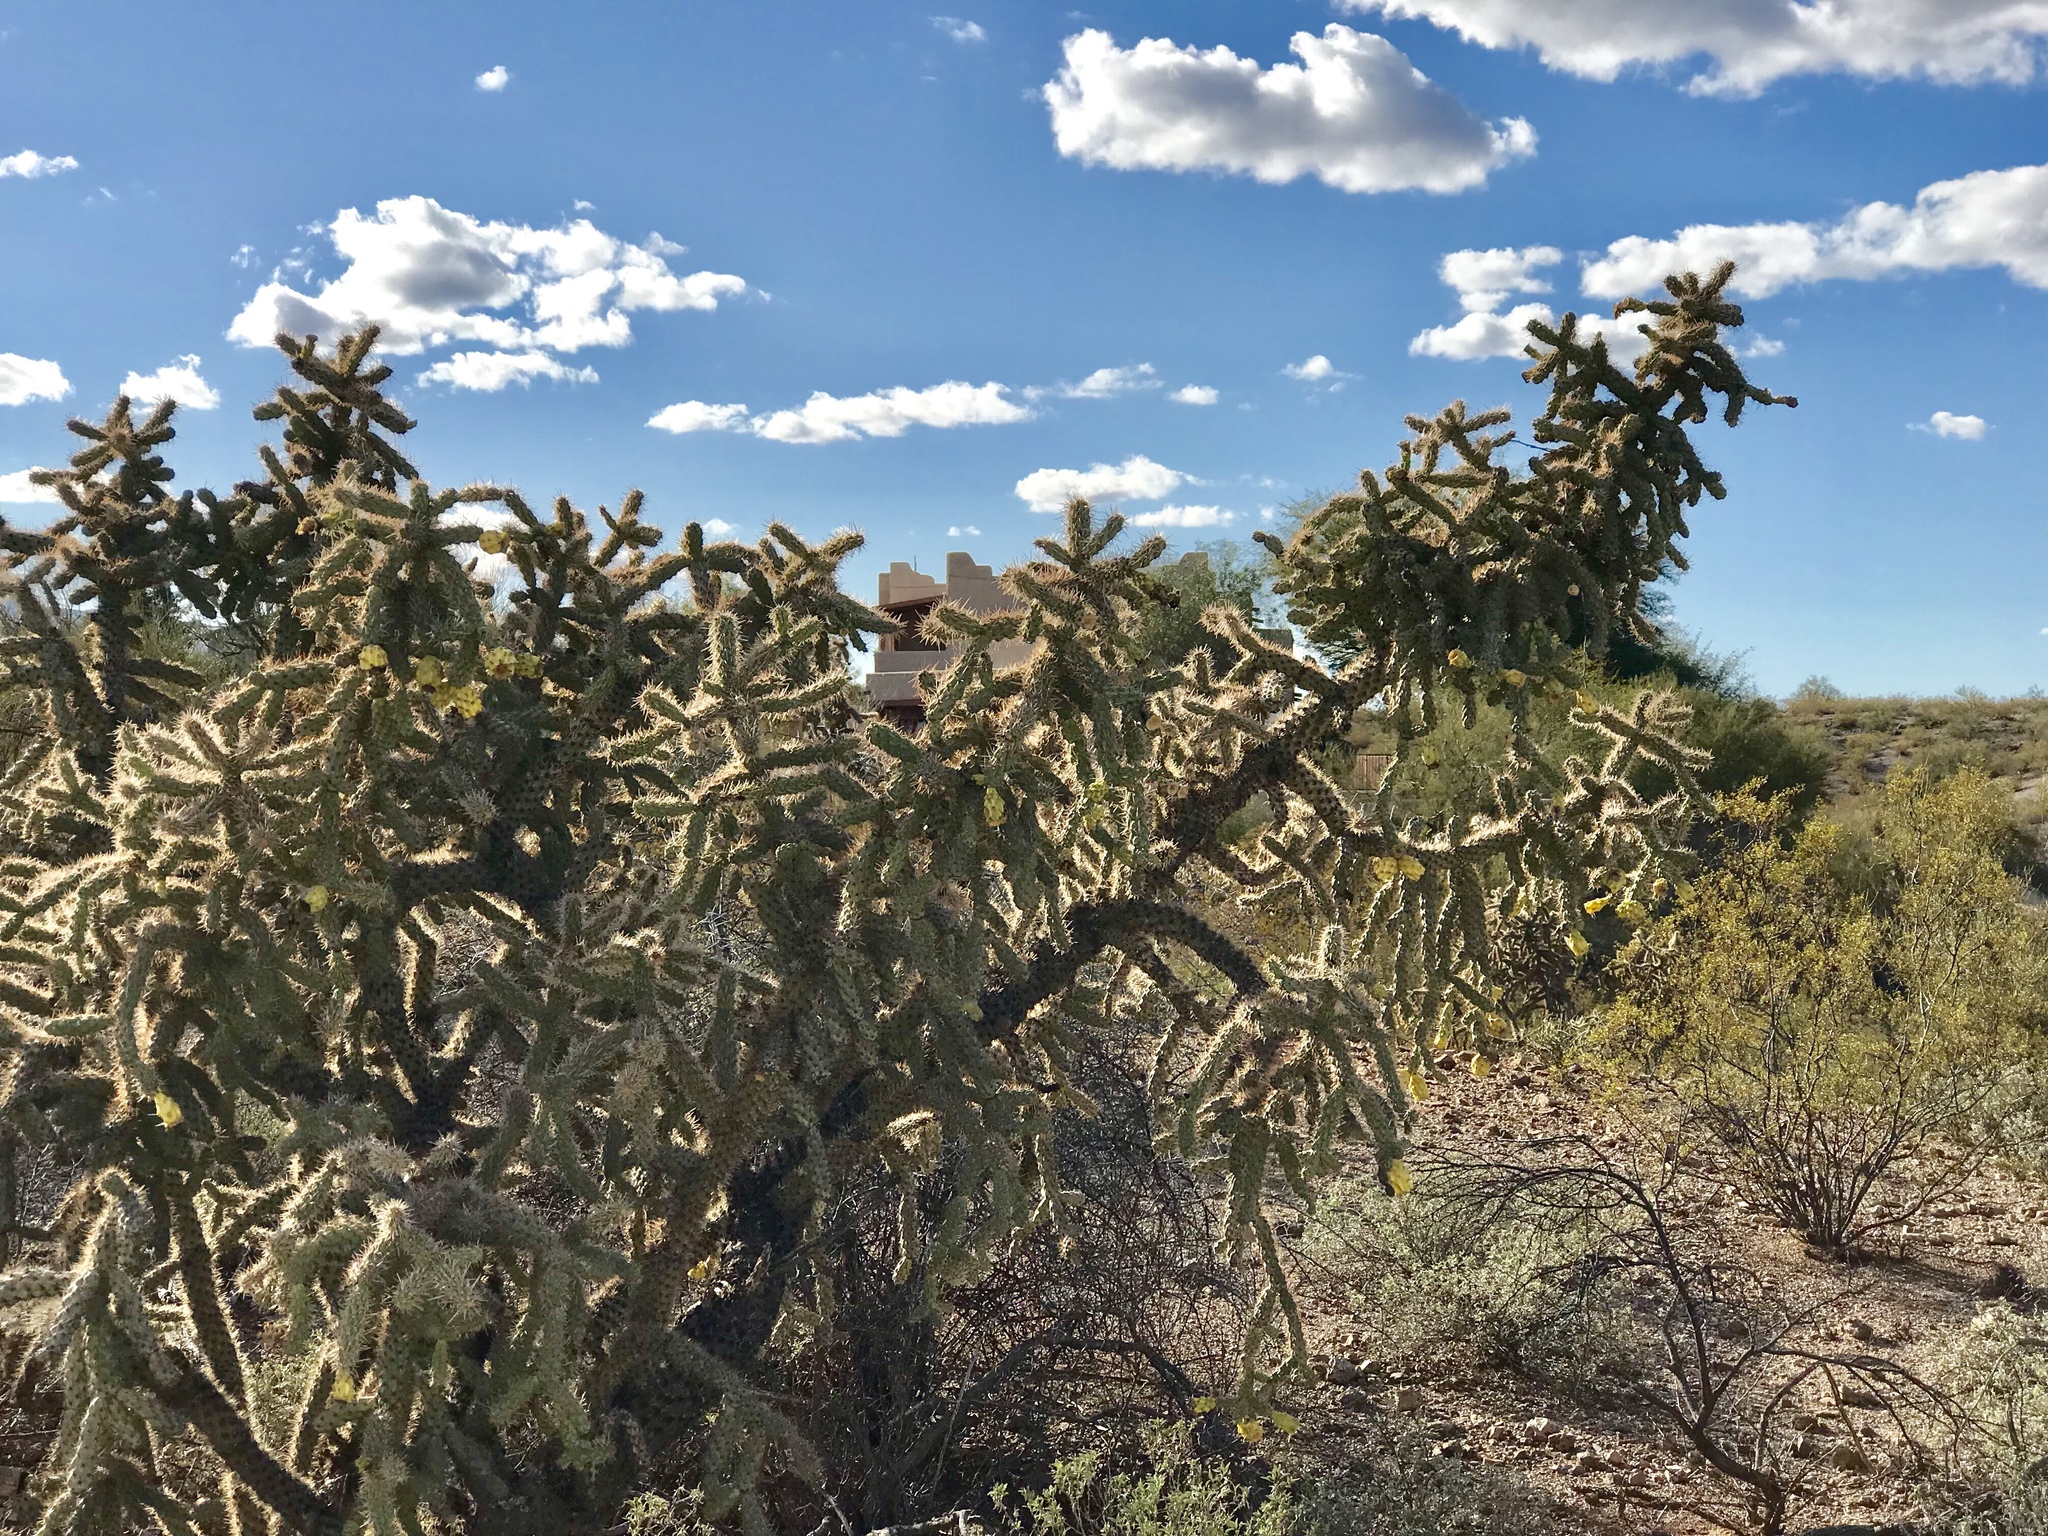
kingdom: Plantae
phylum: Tracheophyta
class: Magnoliopsida
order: Caryophyllales
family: Cactaceae
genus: Cylindropuntia
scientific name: Cylindropuntia imbricata
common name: Candelabrum cactus
